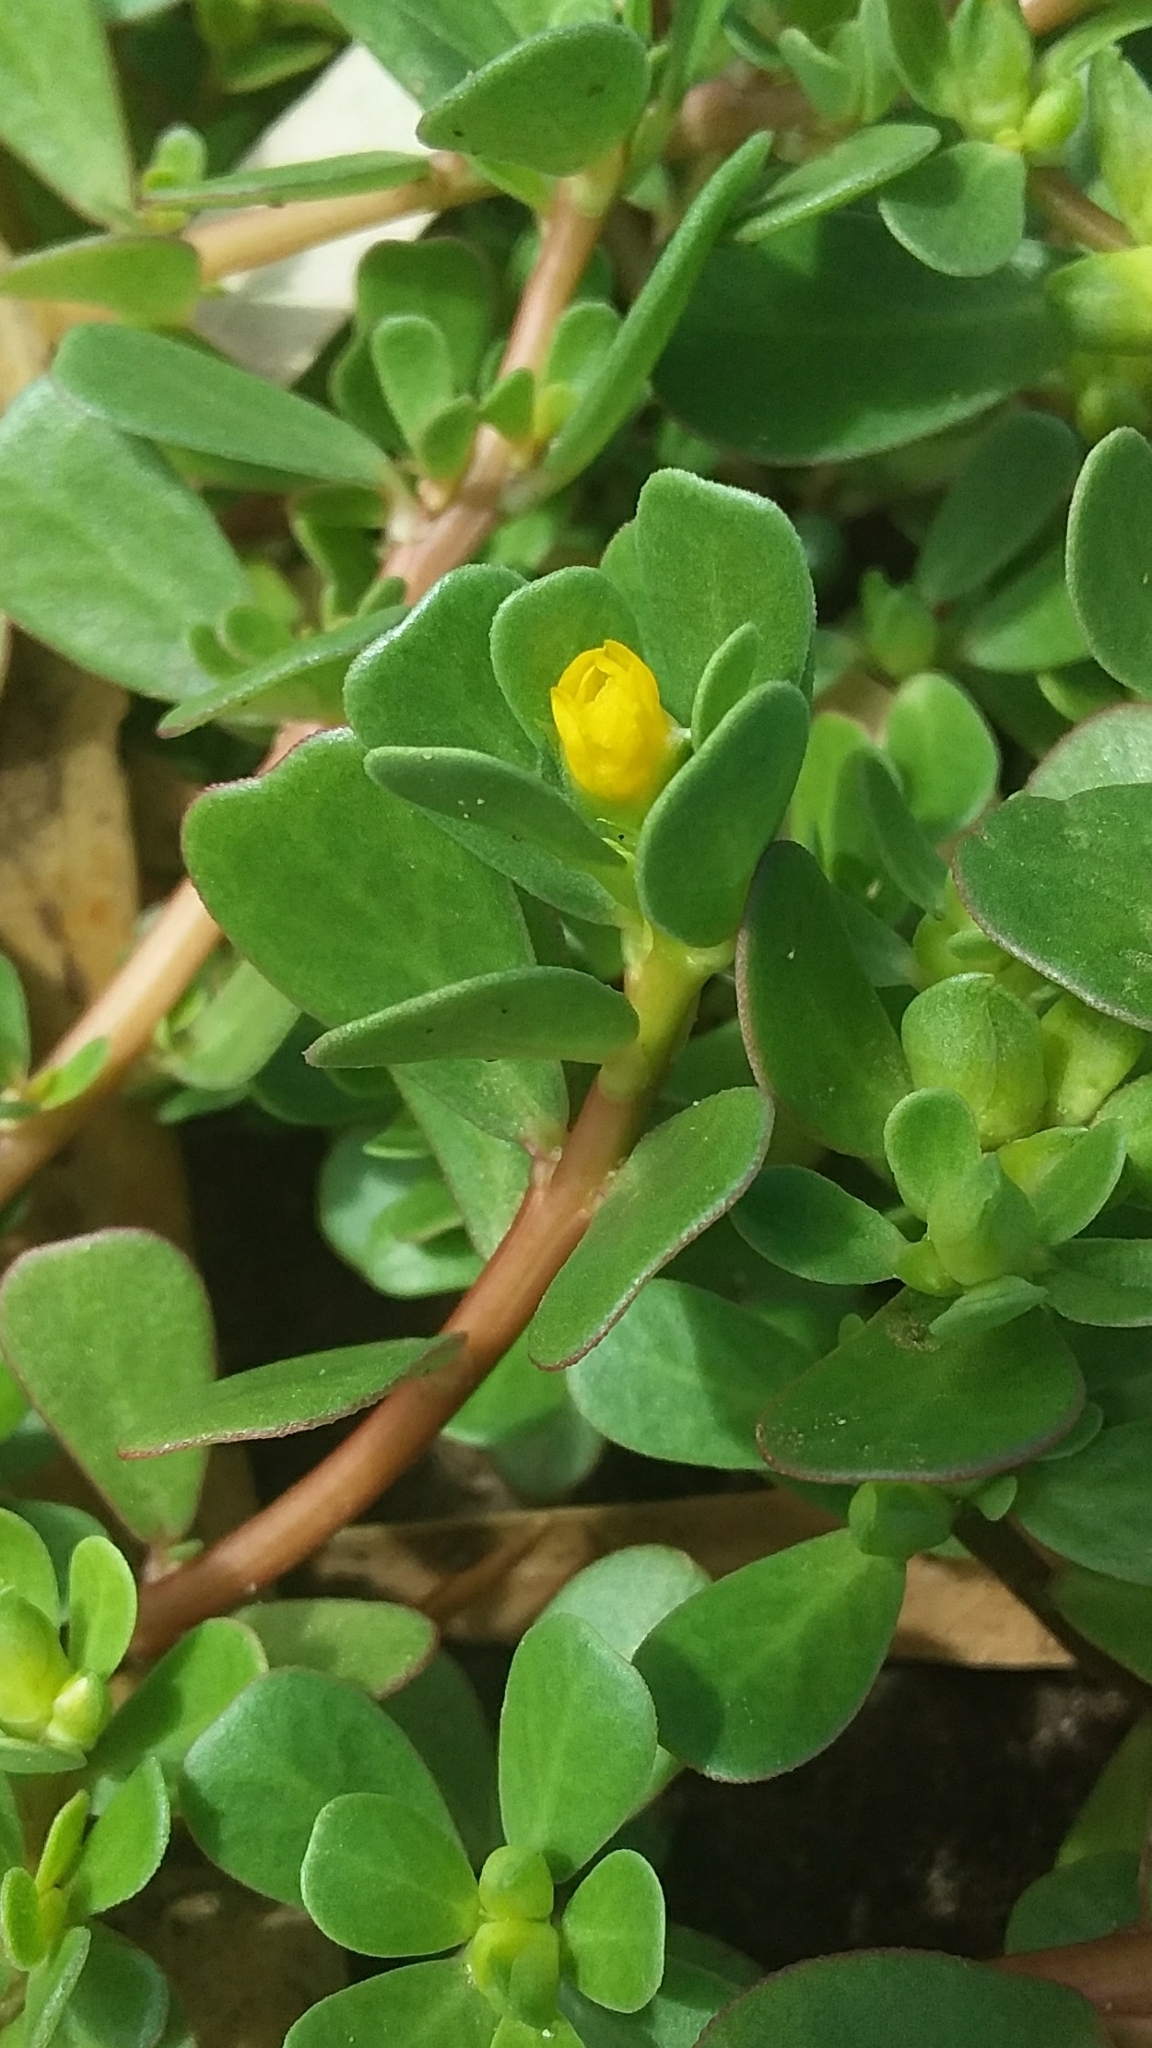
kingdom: Plantae
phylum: Tracheophyta
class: Magnoliopsida
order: Caryophyllales
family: Portulacaceae
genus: Portulaca
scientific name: Portulaca oleracea
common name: Common purslane
